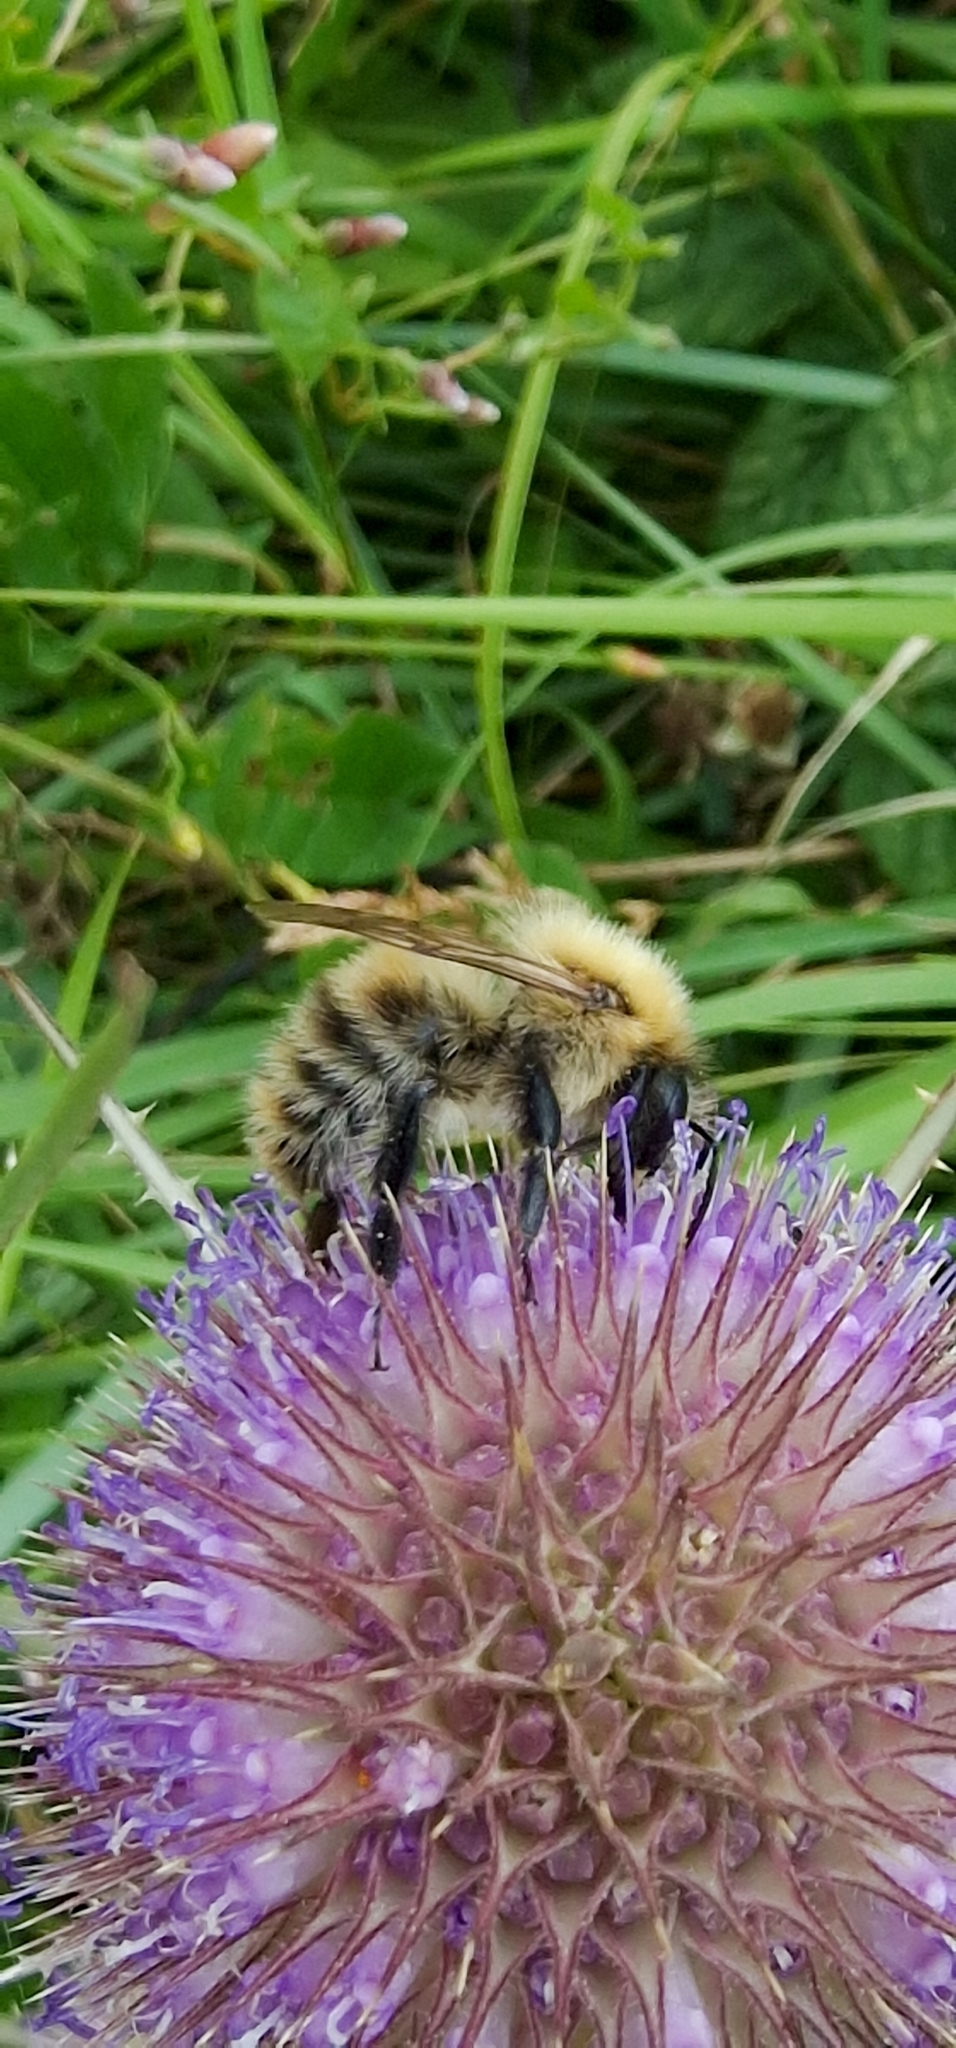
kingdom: Animalia
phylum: Arthropoda
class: Insecta
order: Hymenoptera
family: Apidae
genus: Bombus
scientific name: Bombus pascuorum
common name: Common carder bee
